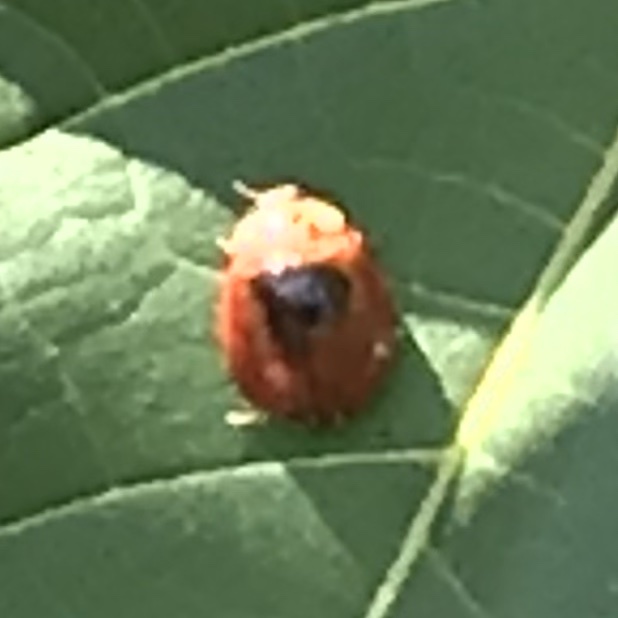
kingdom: Animalia
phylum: Arthropoda
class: Insecta
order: Coleoptera
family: Coccinellidae
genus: Harmonia
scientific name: Harmonia axyridis
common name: Harlequin ladybird
